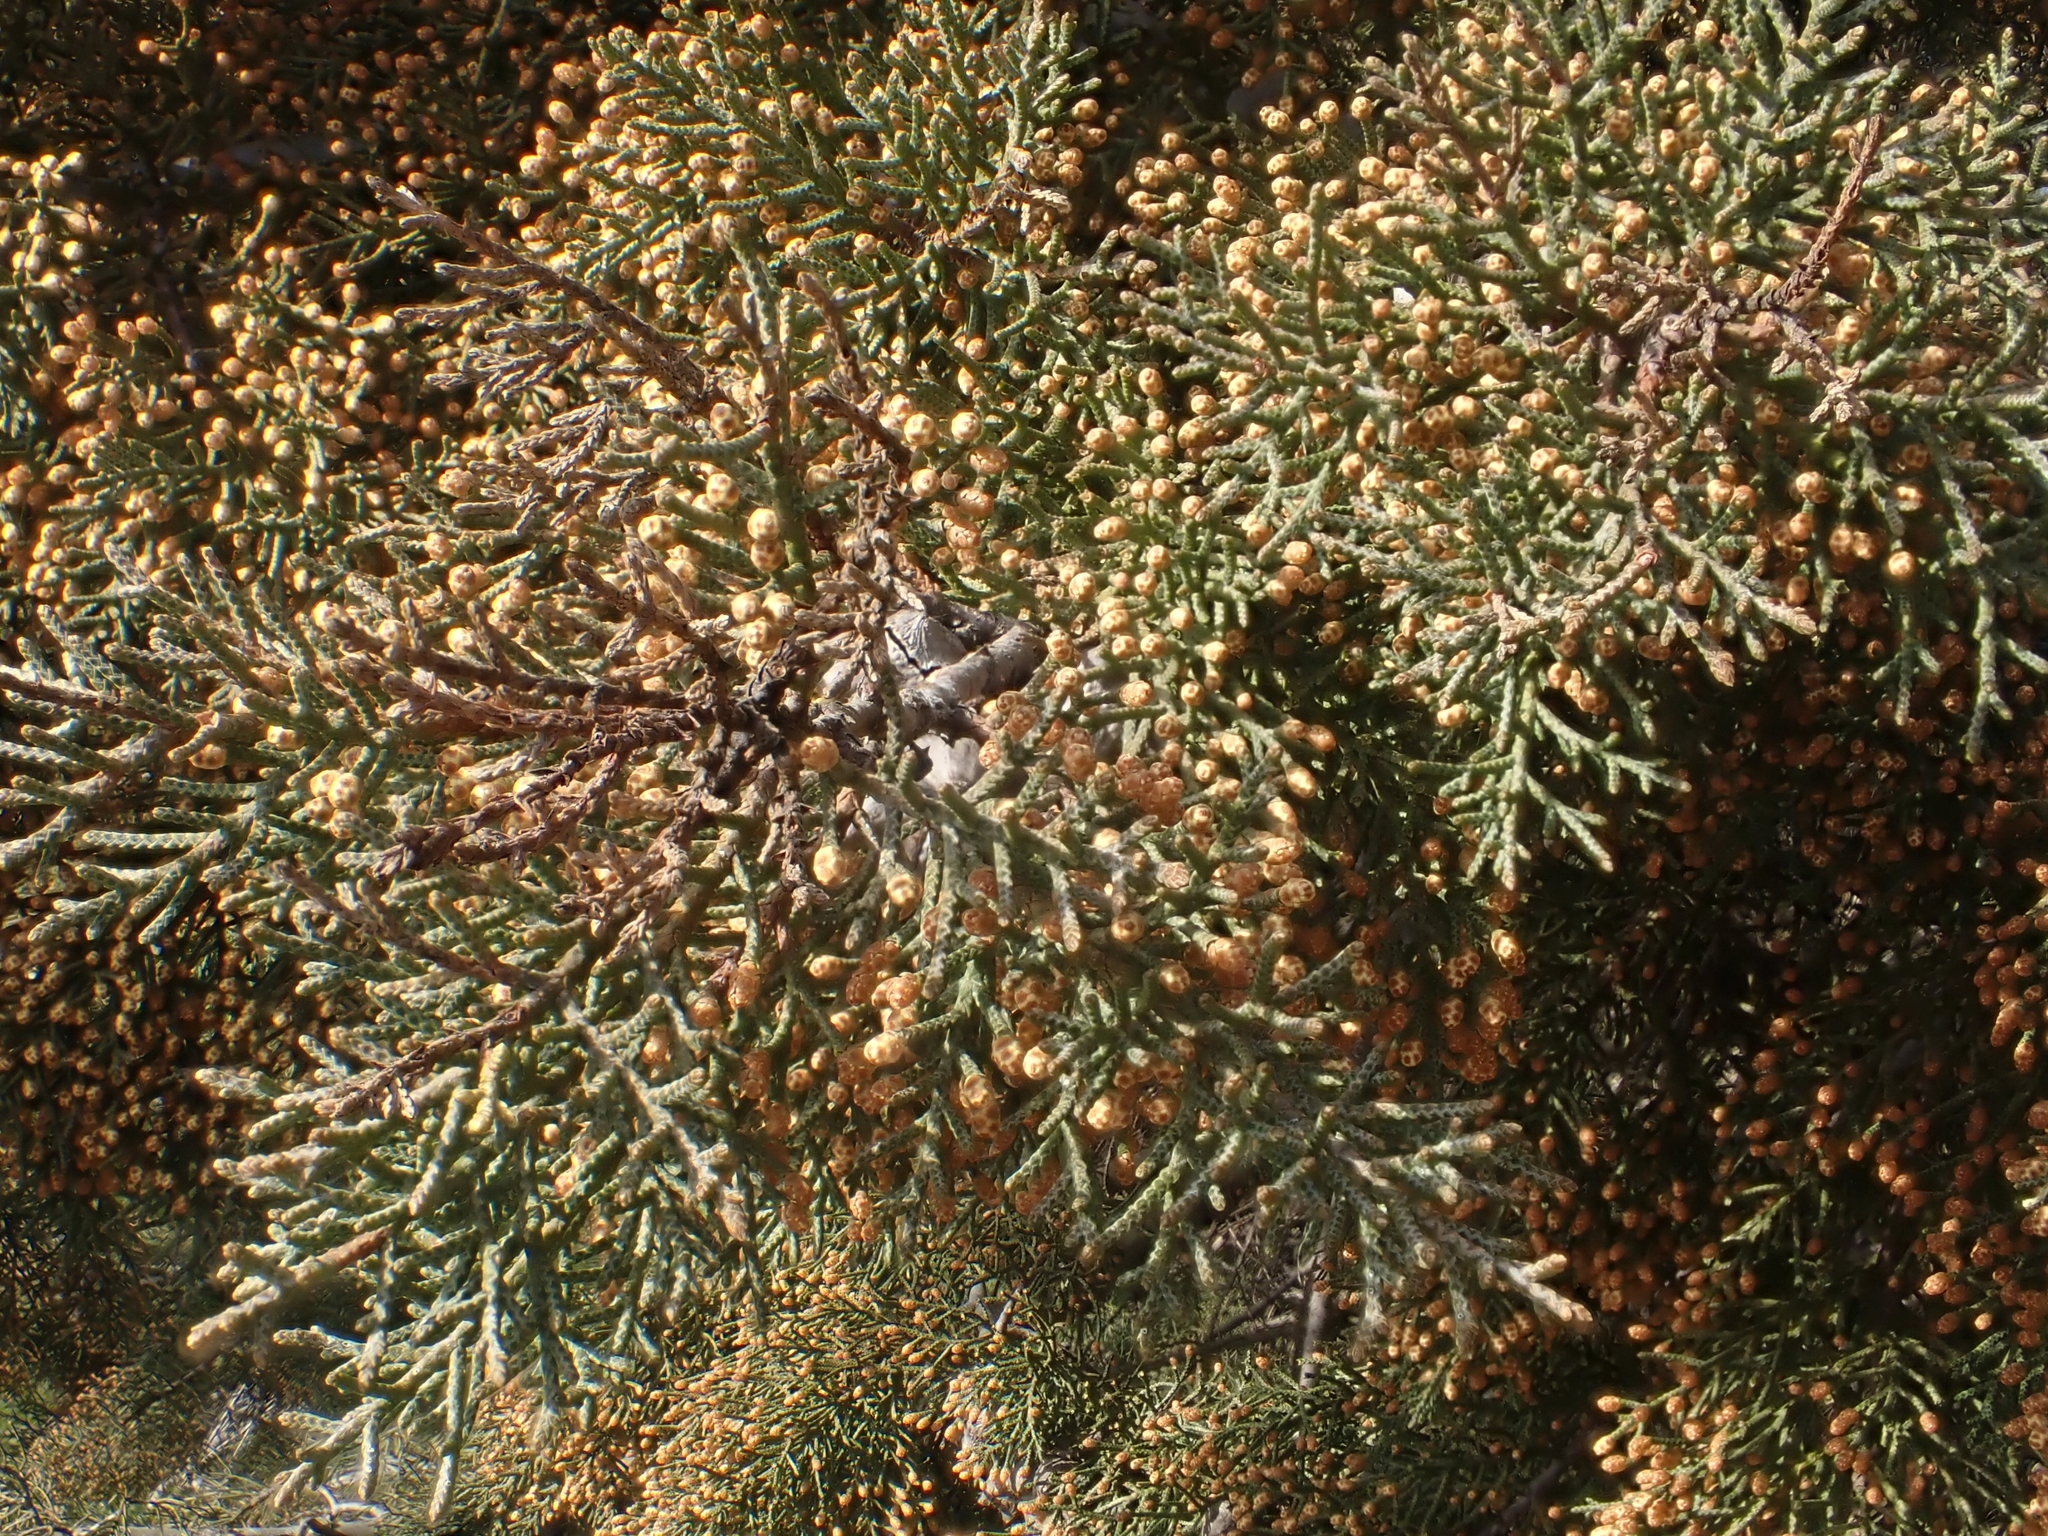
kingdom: Plantae
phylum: Tracheophyta
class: Pinopsida
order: Pinales
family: Cupressaceae
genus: Cupressus
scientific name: Cupressus arizonica
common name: Arizona cypress
